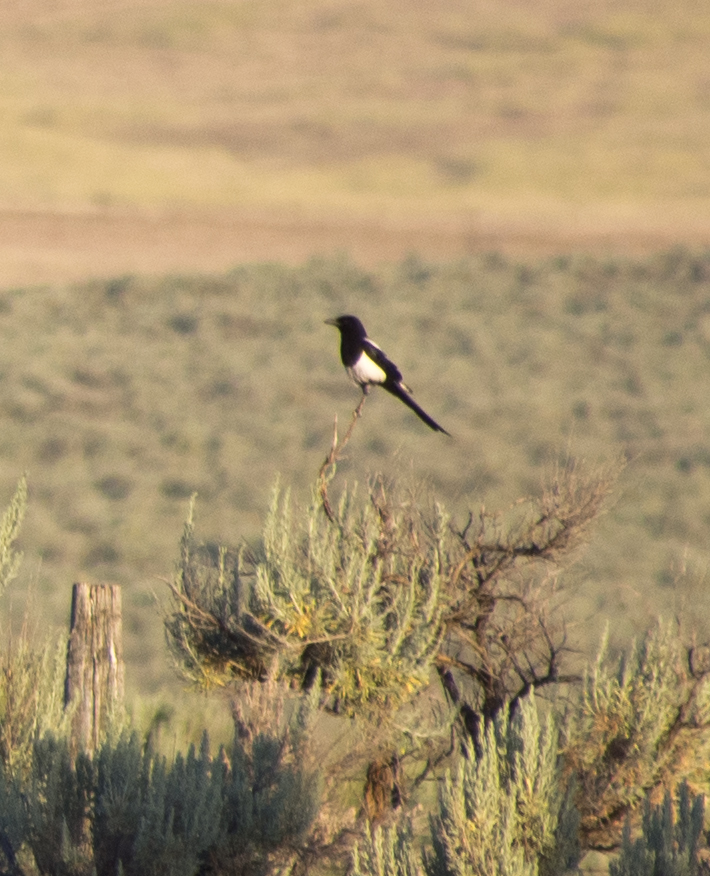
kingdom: Animalia
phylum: Chordata
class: Aves
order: Passeriformes
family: Corvidae
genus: Pica
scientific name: Pica hudsonia
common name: Black-billed magpie
